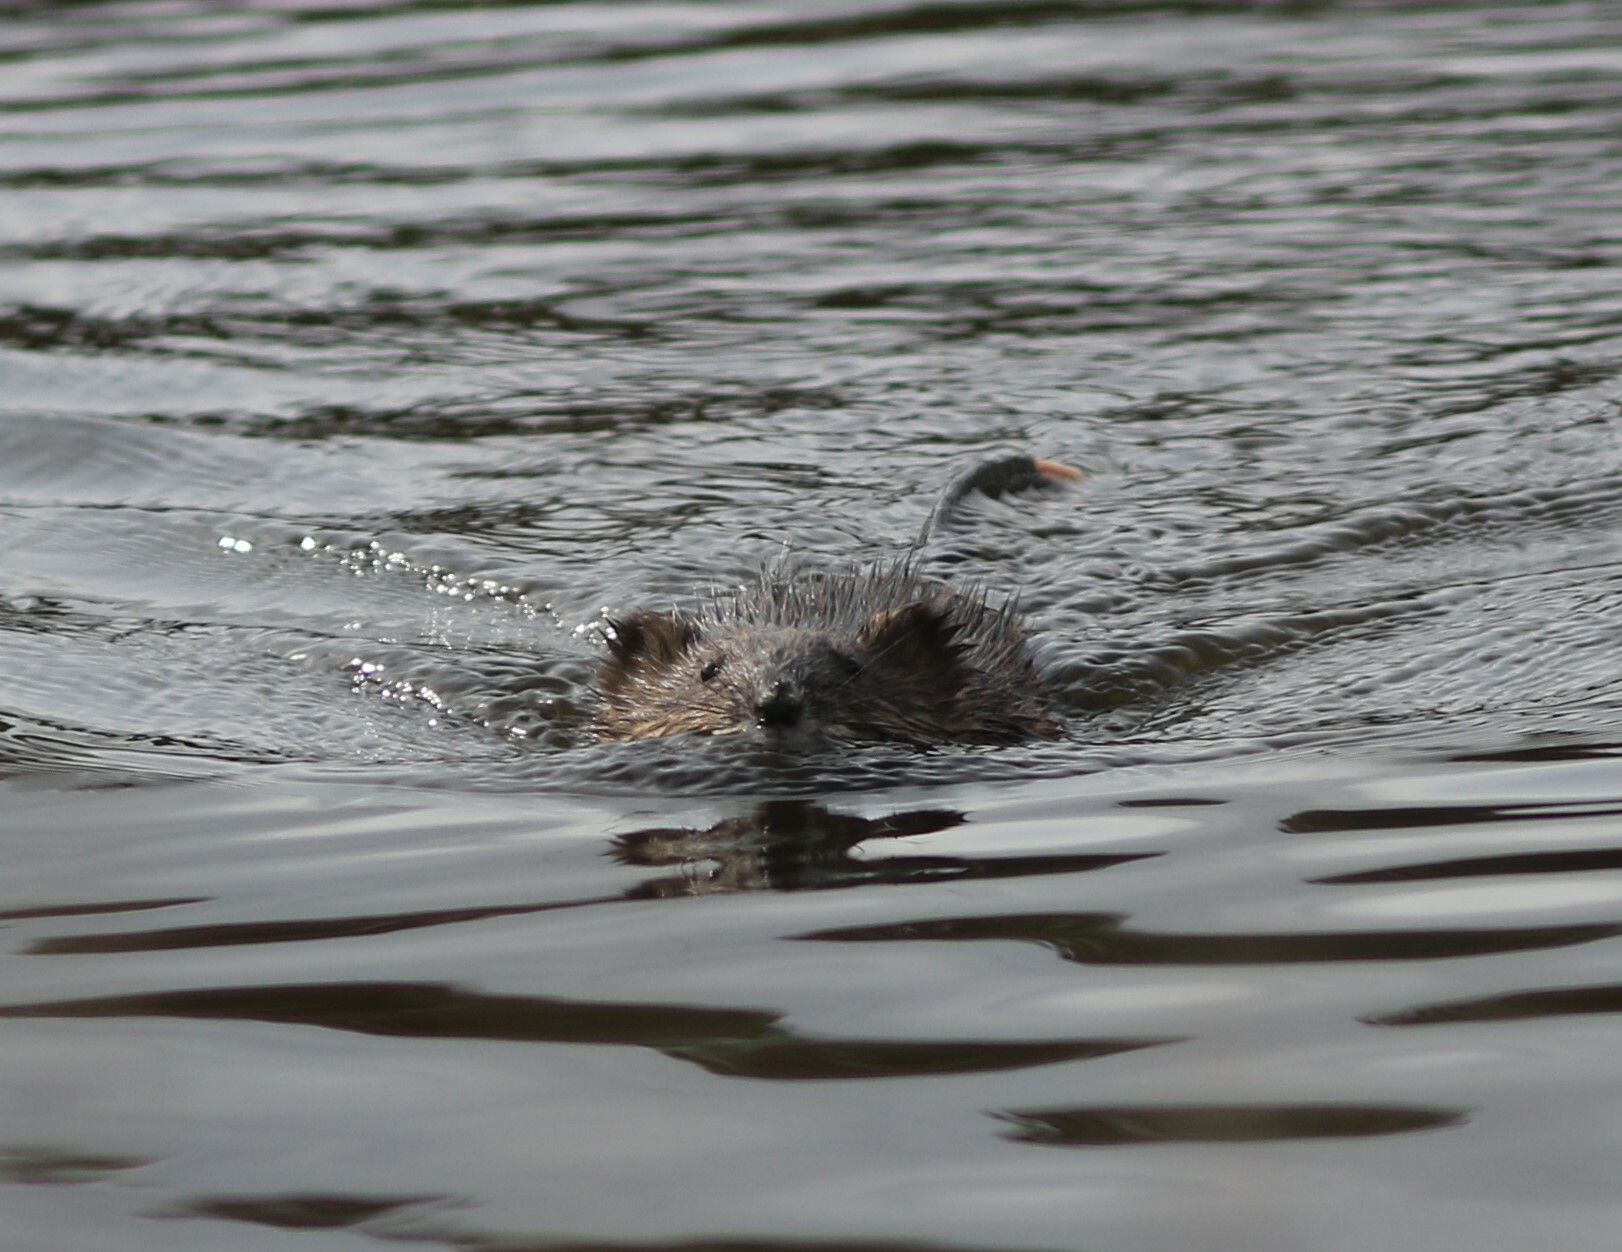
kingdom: Animalia
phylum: Chordata
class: Mammalia
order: Rodentia
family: Cricetidae
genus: Ondatra
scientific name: Ondatra zibethicus
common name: Muskrat
